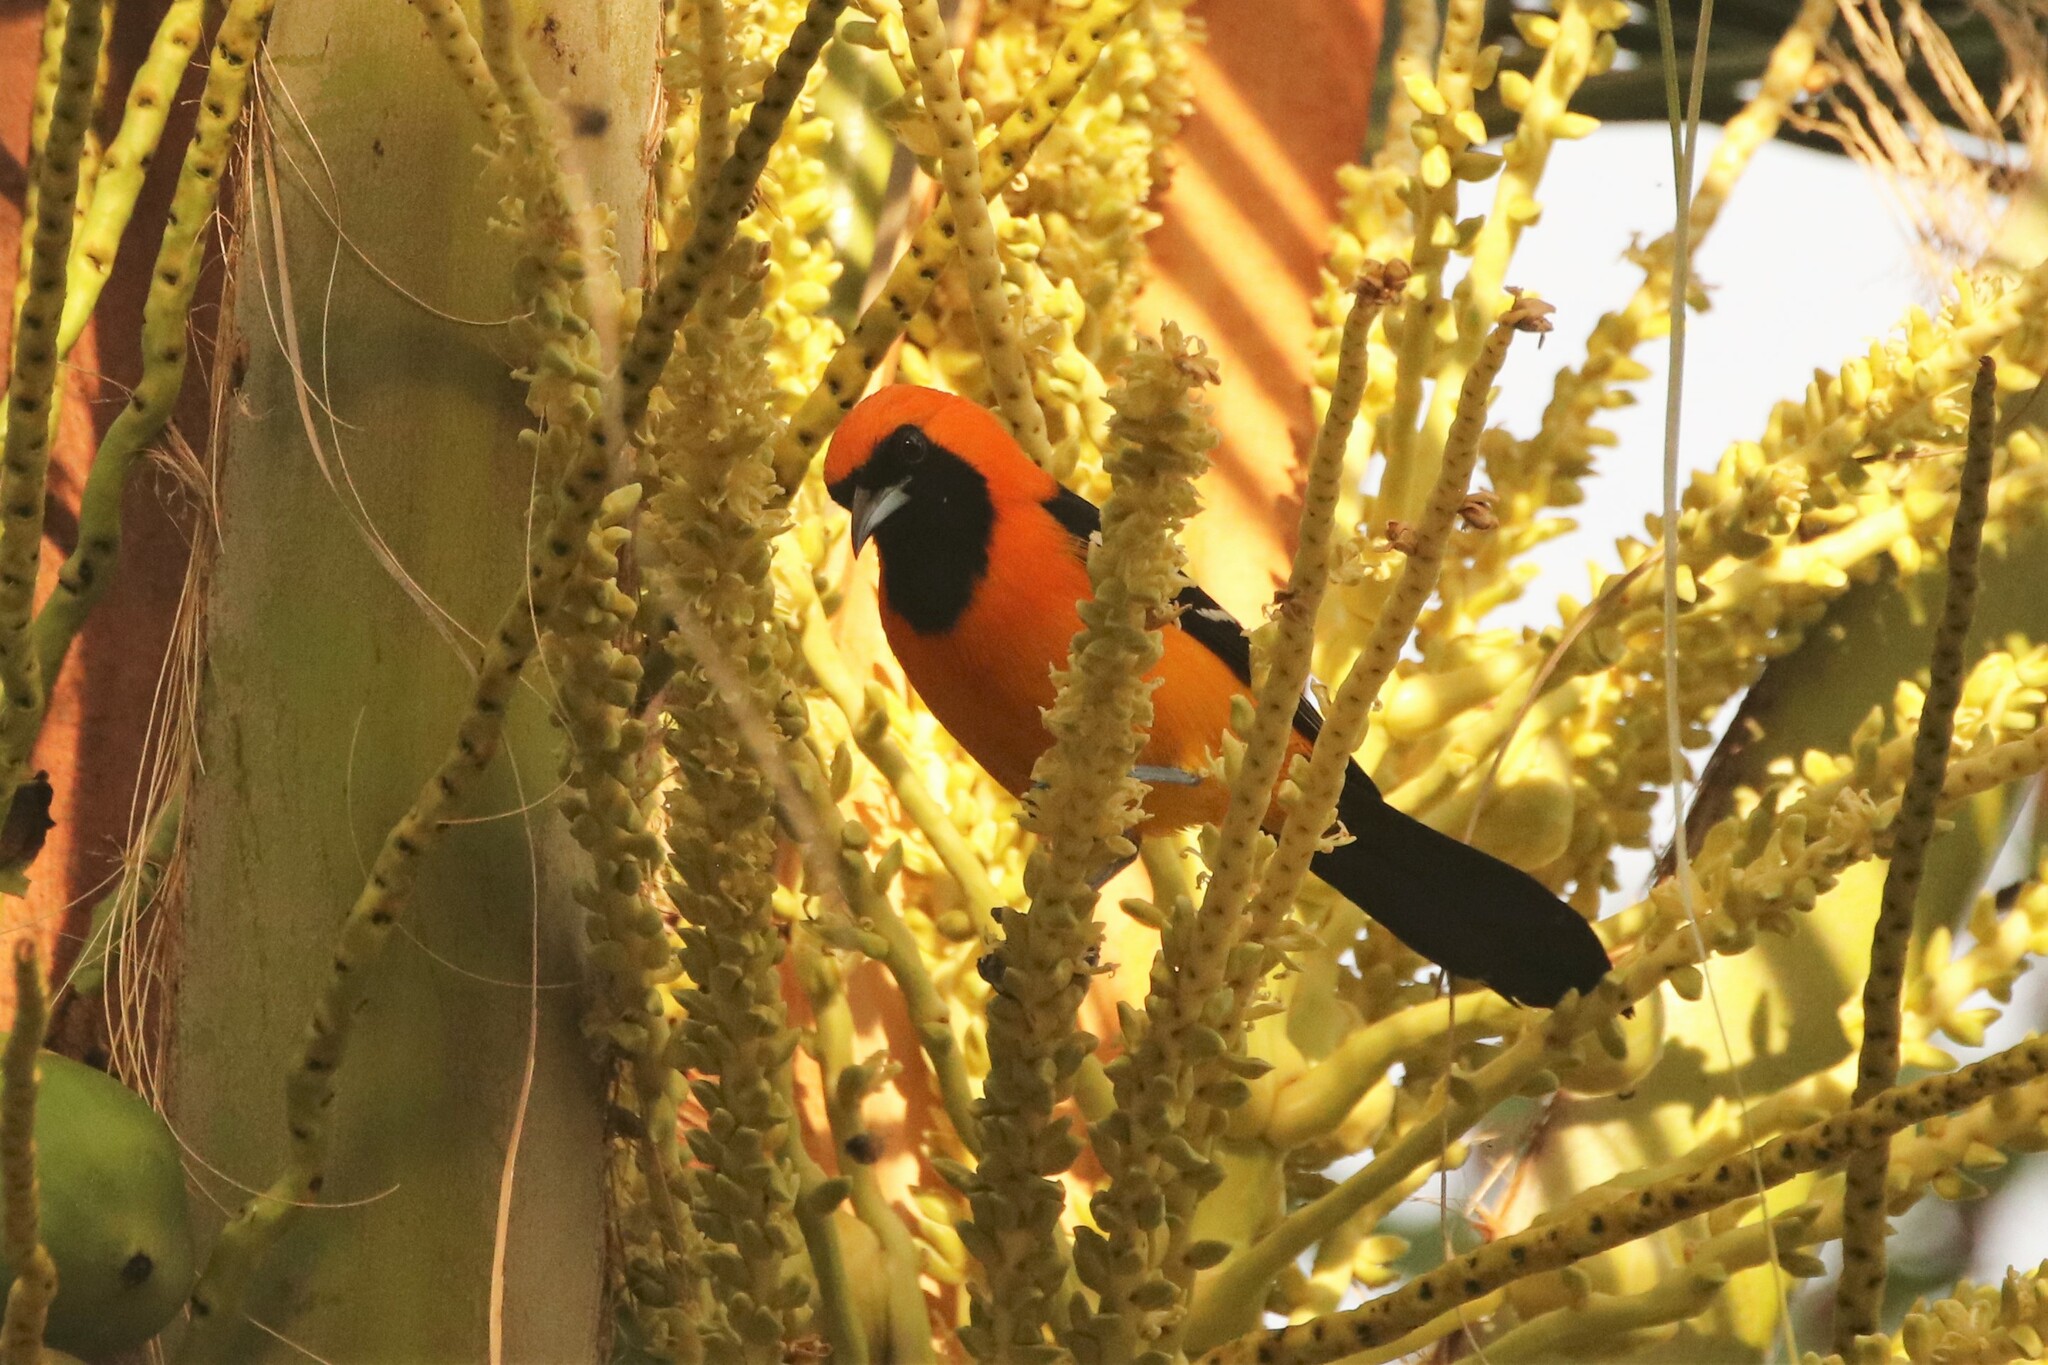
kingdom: Animalia
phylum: Chordata
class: Aves
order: Passeriformes
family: Icteridae
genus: Icterus
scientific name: Icterus cucullatus
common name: Hooded oriole
